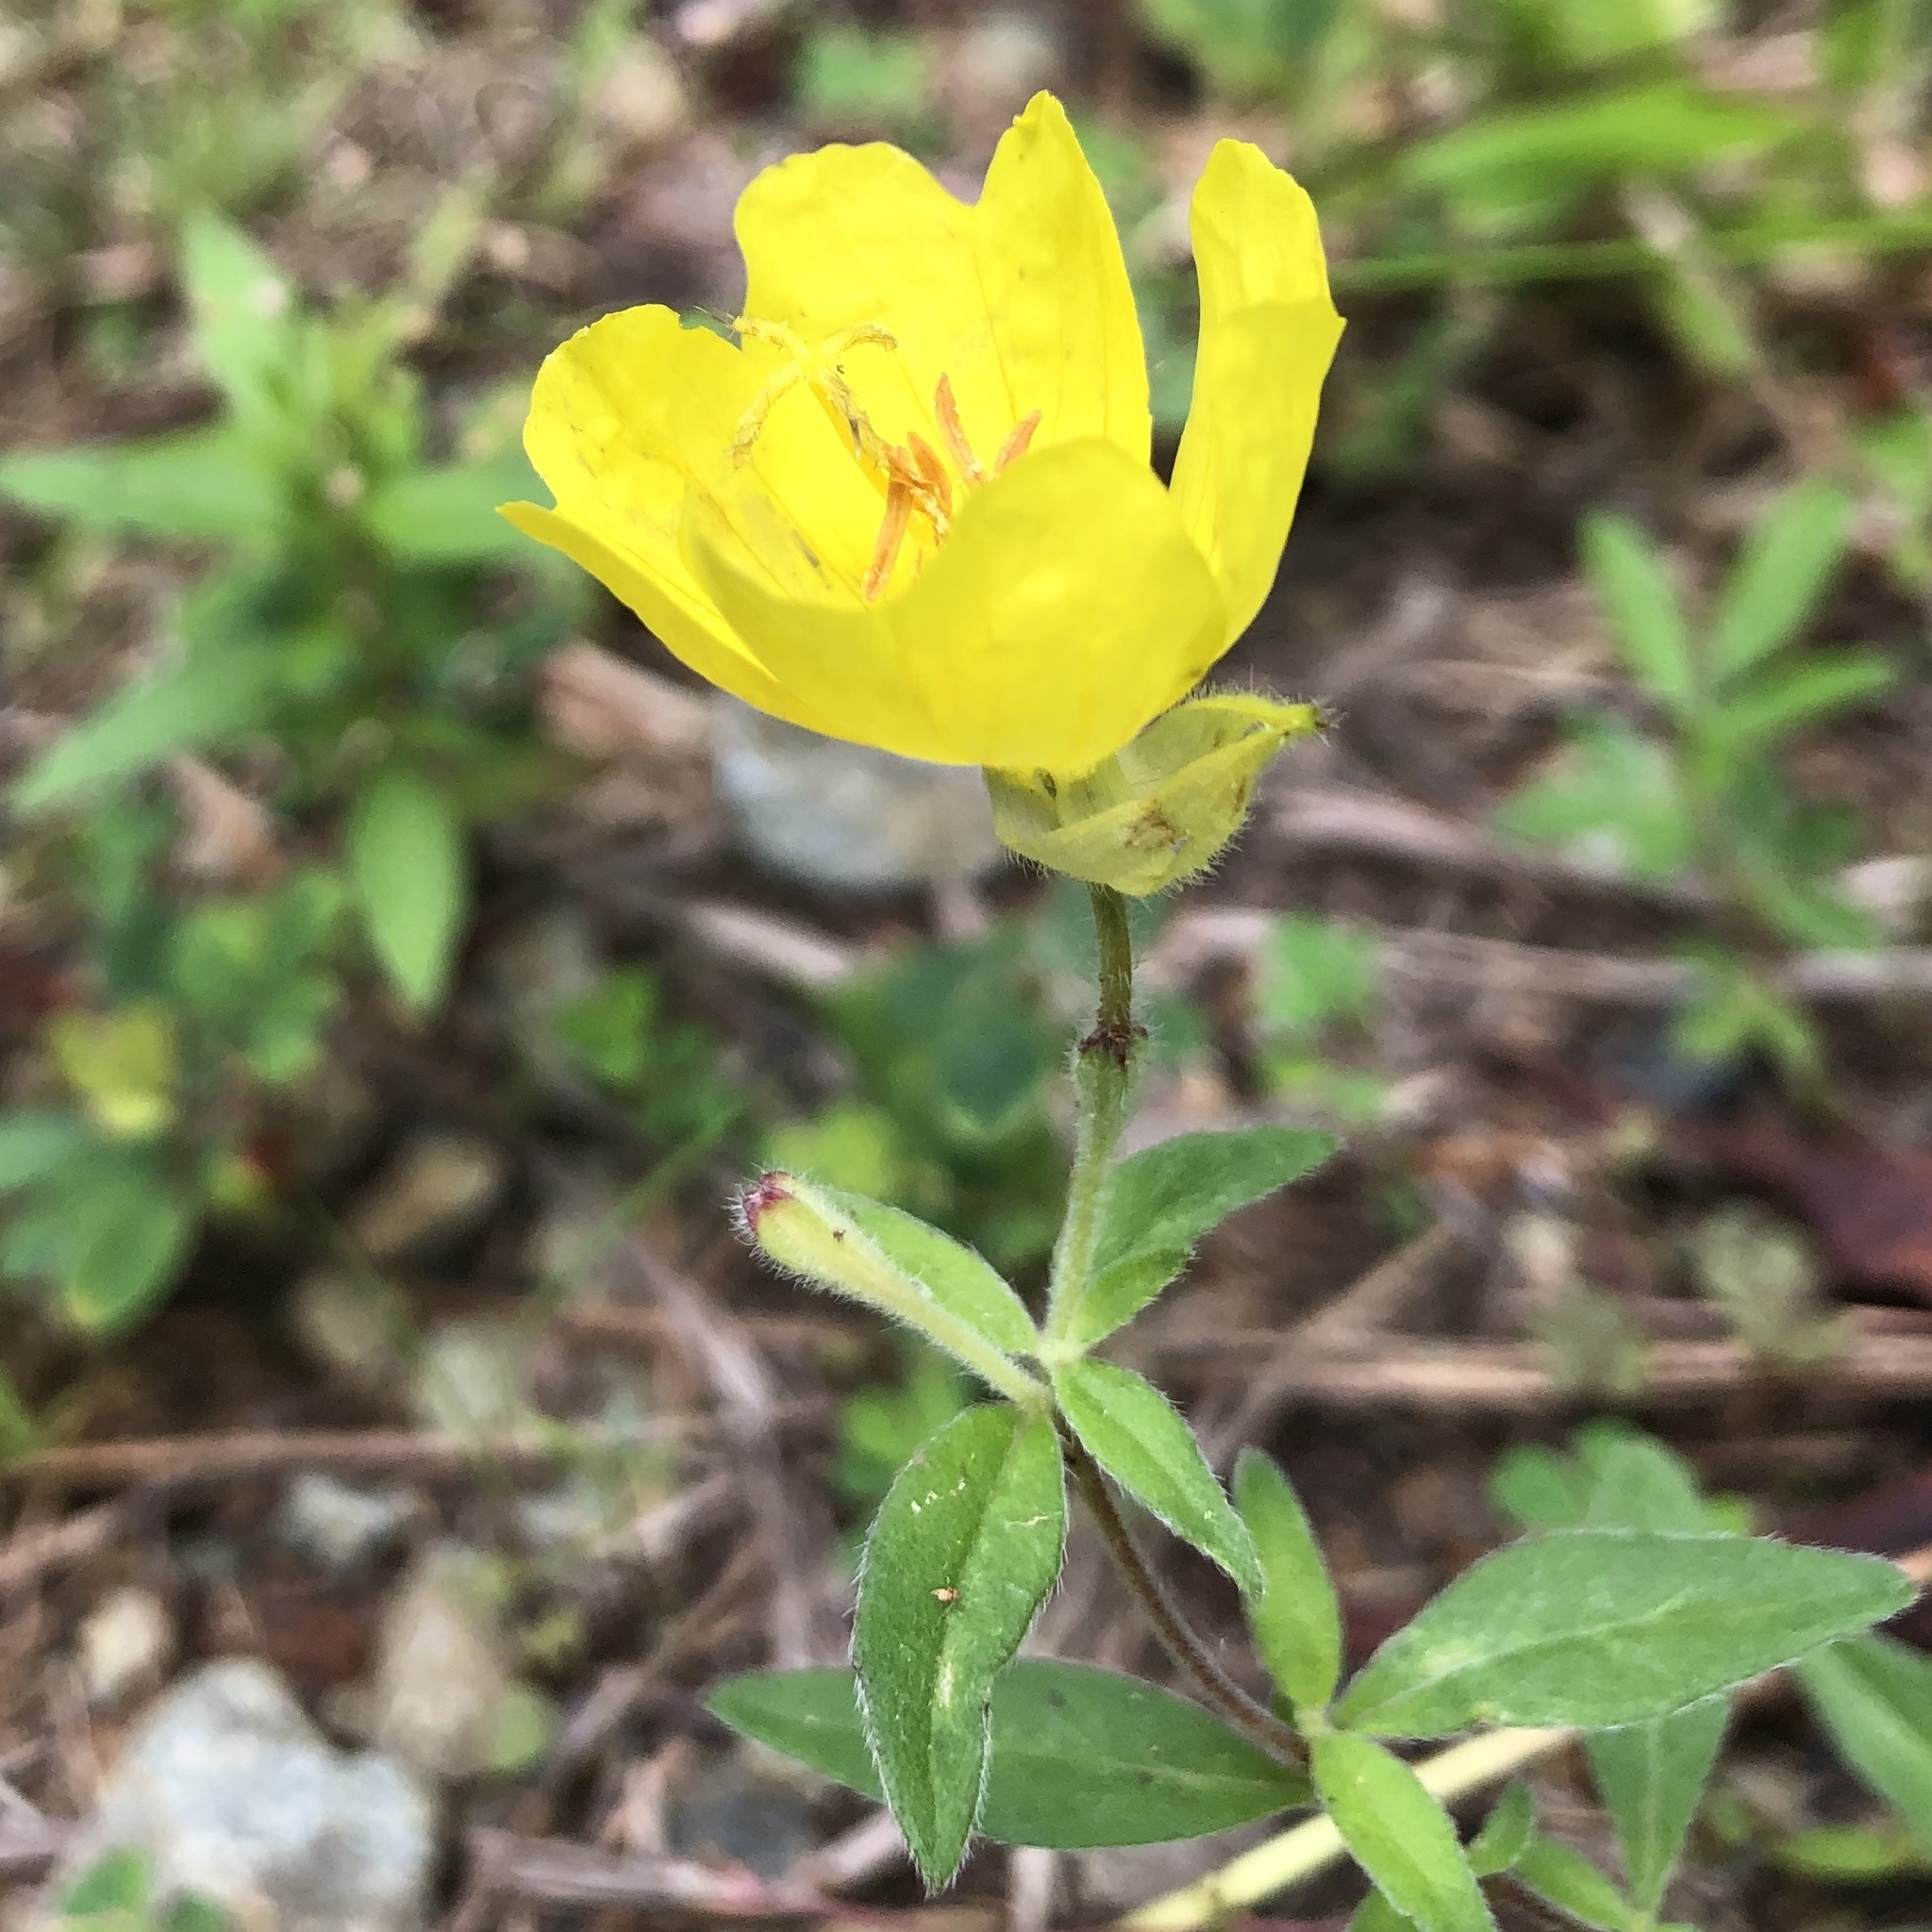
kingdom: Plantae
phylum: Tracheophyta
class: Magnoliopsida
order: Myrtales
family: Onagraceae
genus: Oenothera
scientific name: Oenothera fruticosa
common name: Southern sundrops
